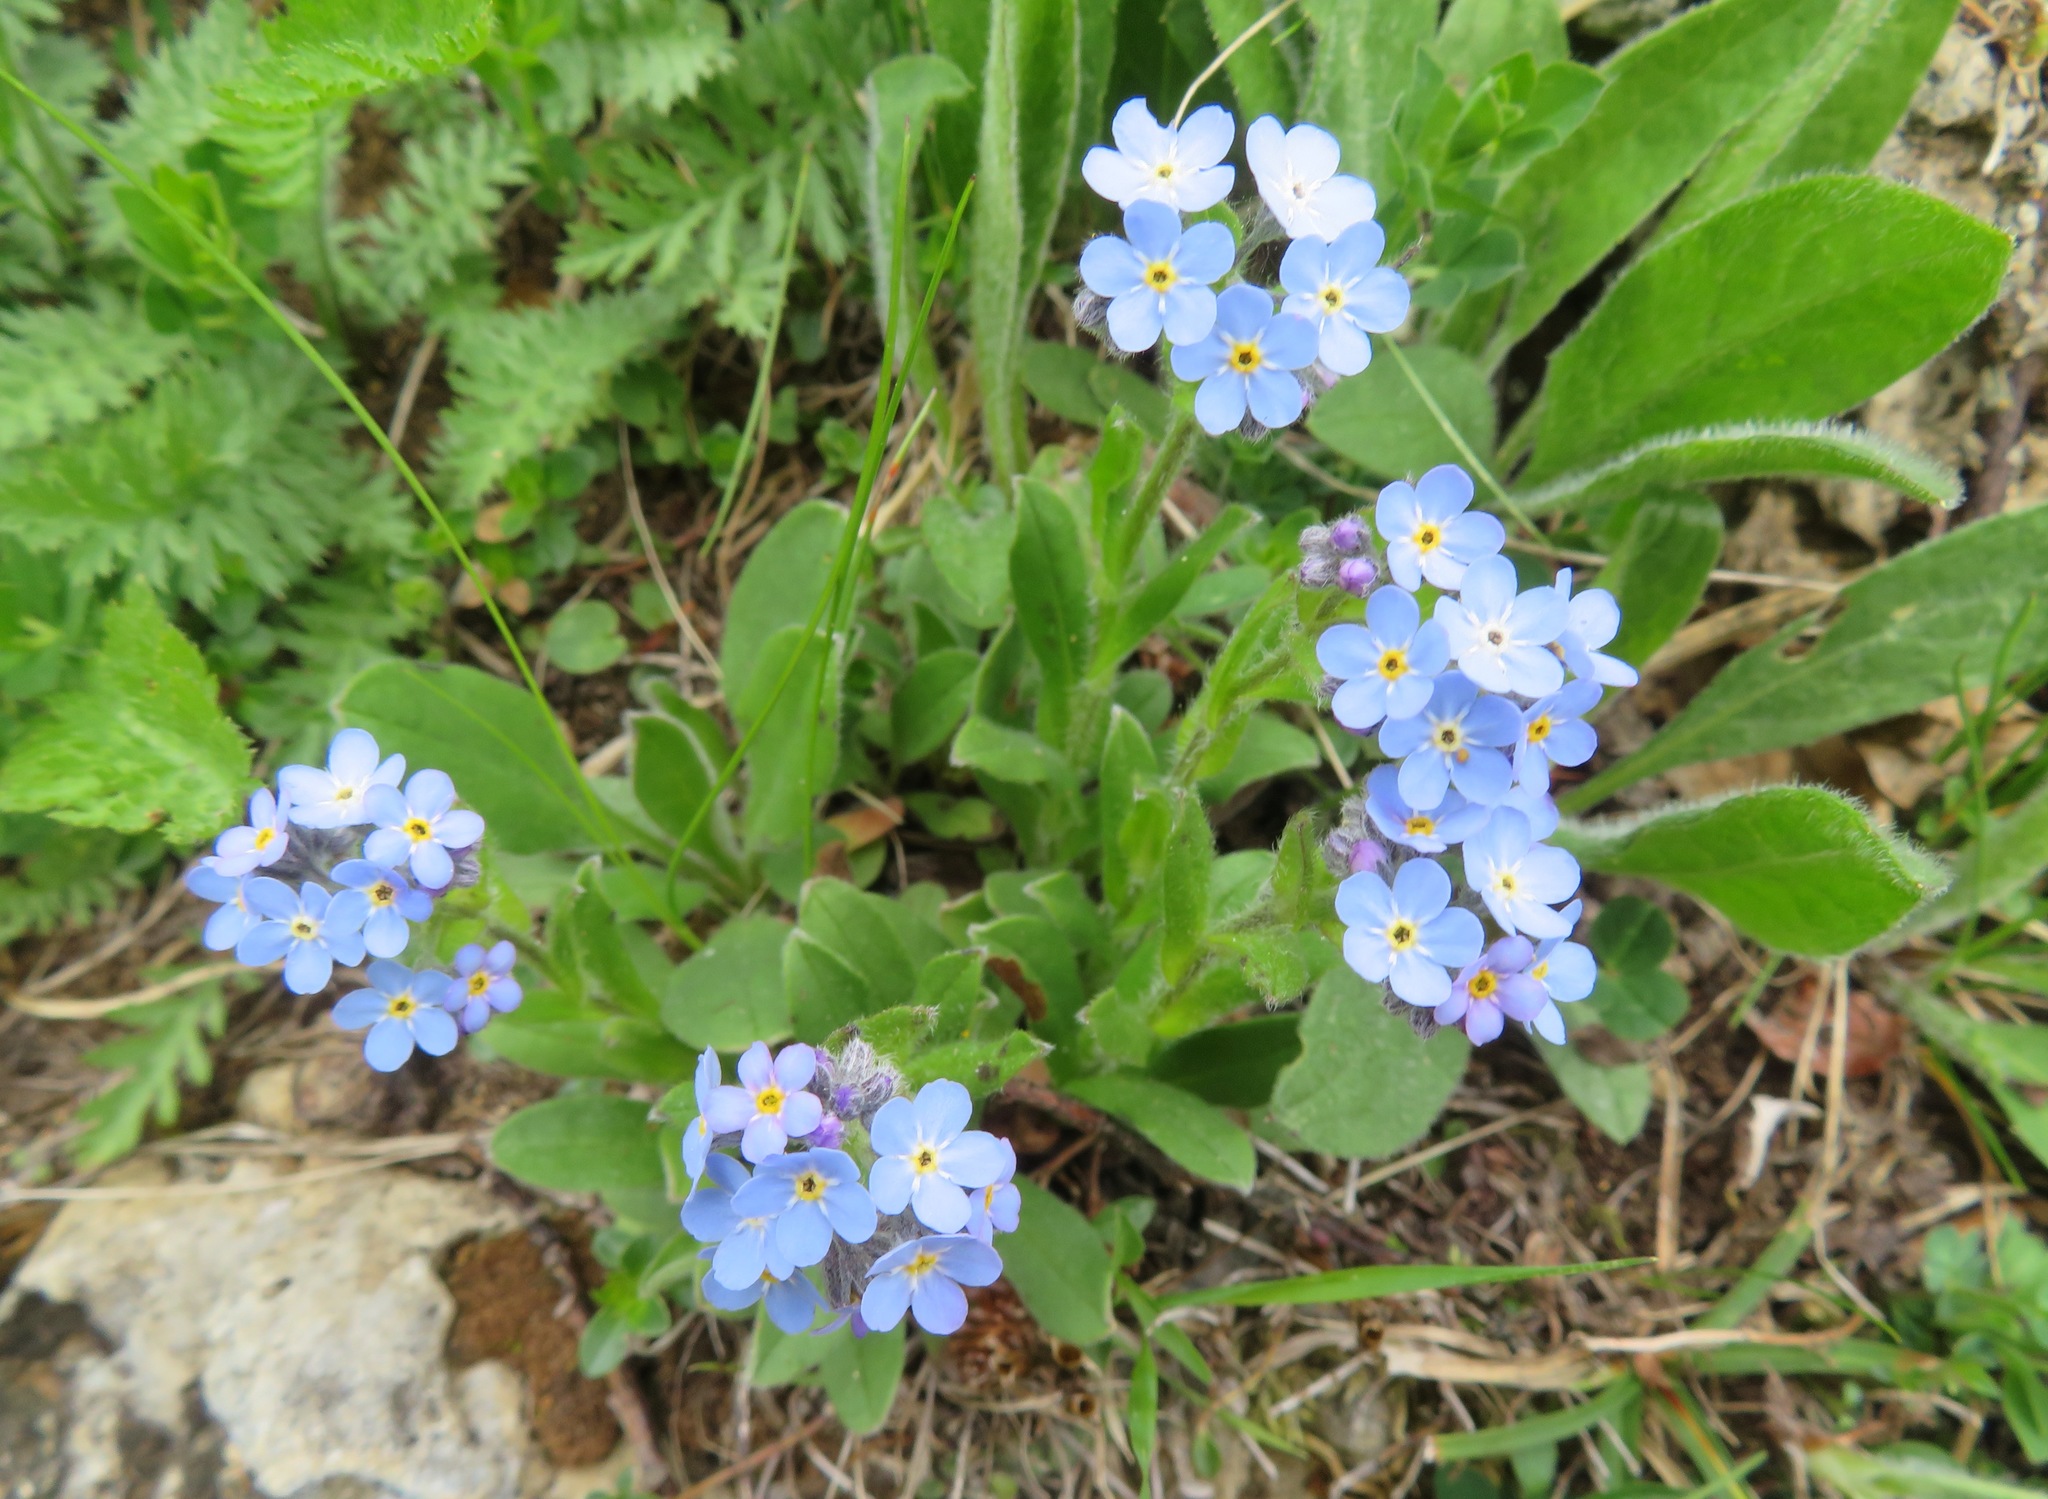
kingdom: Plantae
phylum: Tracheophyta
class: Magnoliopsida
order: Boraginales
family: Boraginaceae
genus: Myosotis
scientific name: Myosotis alpestris
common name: Alpine forget-me-not
